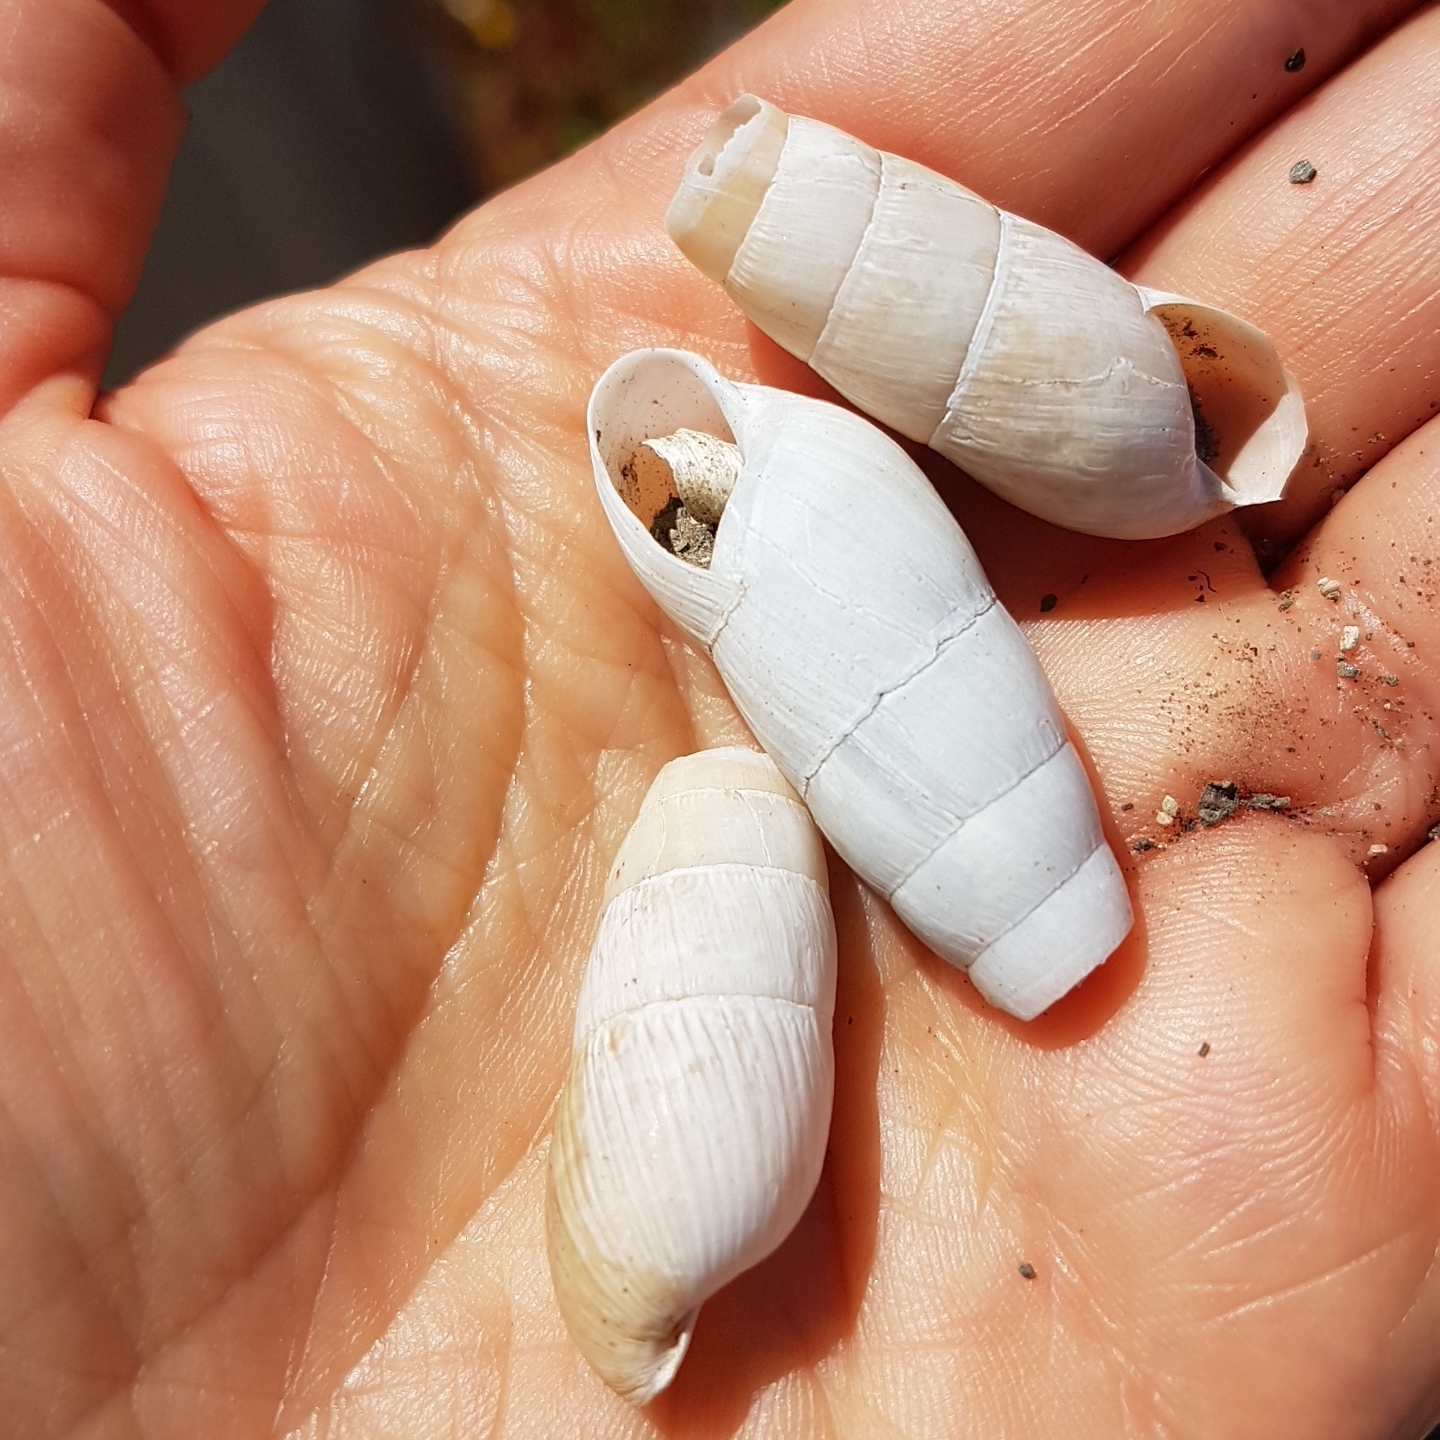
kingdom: Animalia
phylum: Mollusca
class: Gastropoda
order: Stylommatophora
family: Achatinidae
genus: Rumina
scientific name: Rumina decollata
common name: Decollate snail
